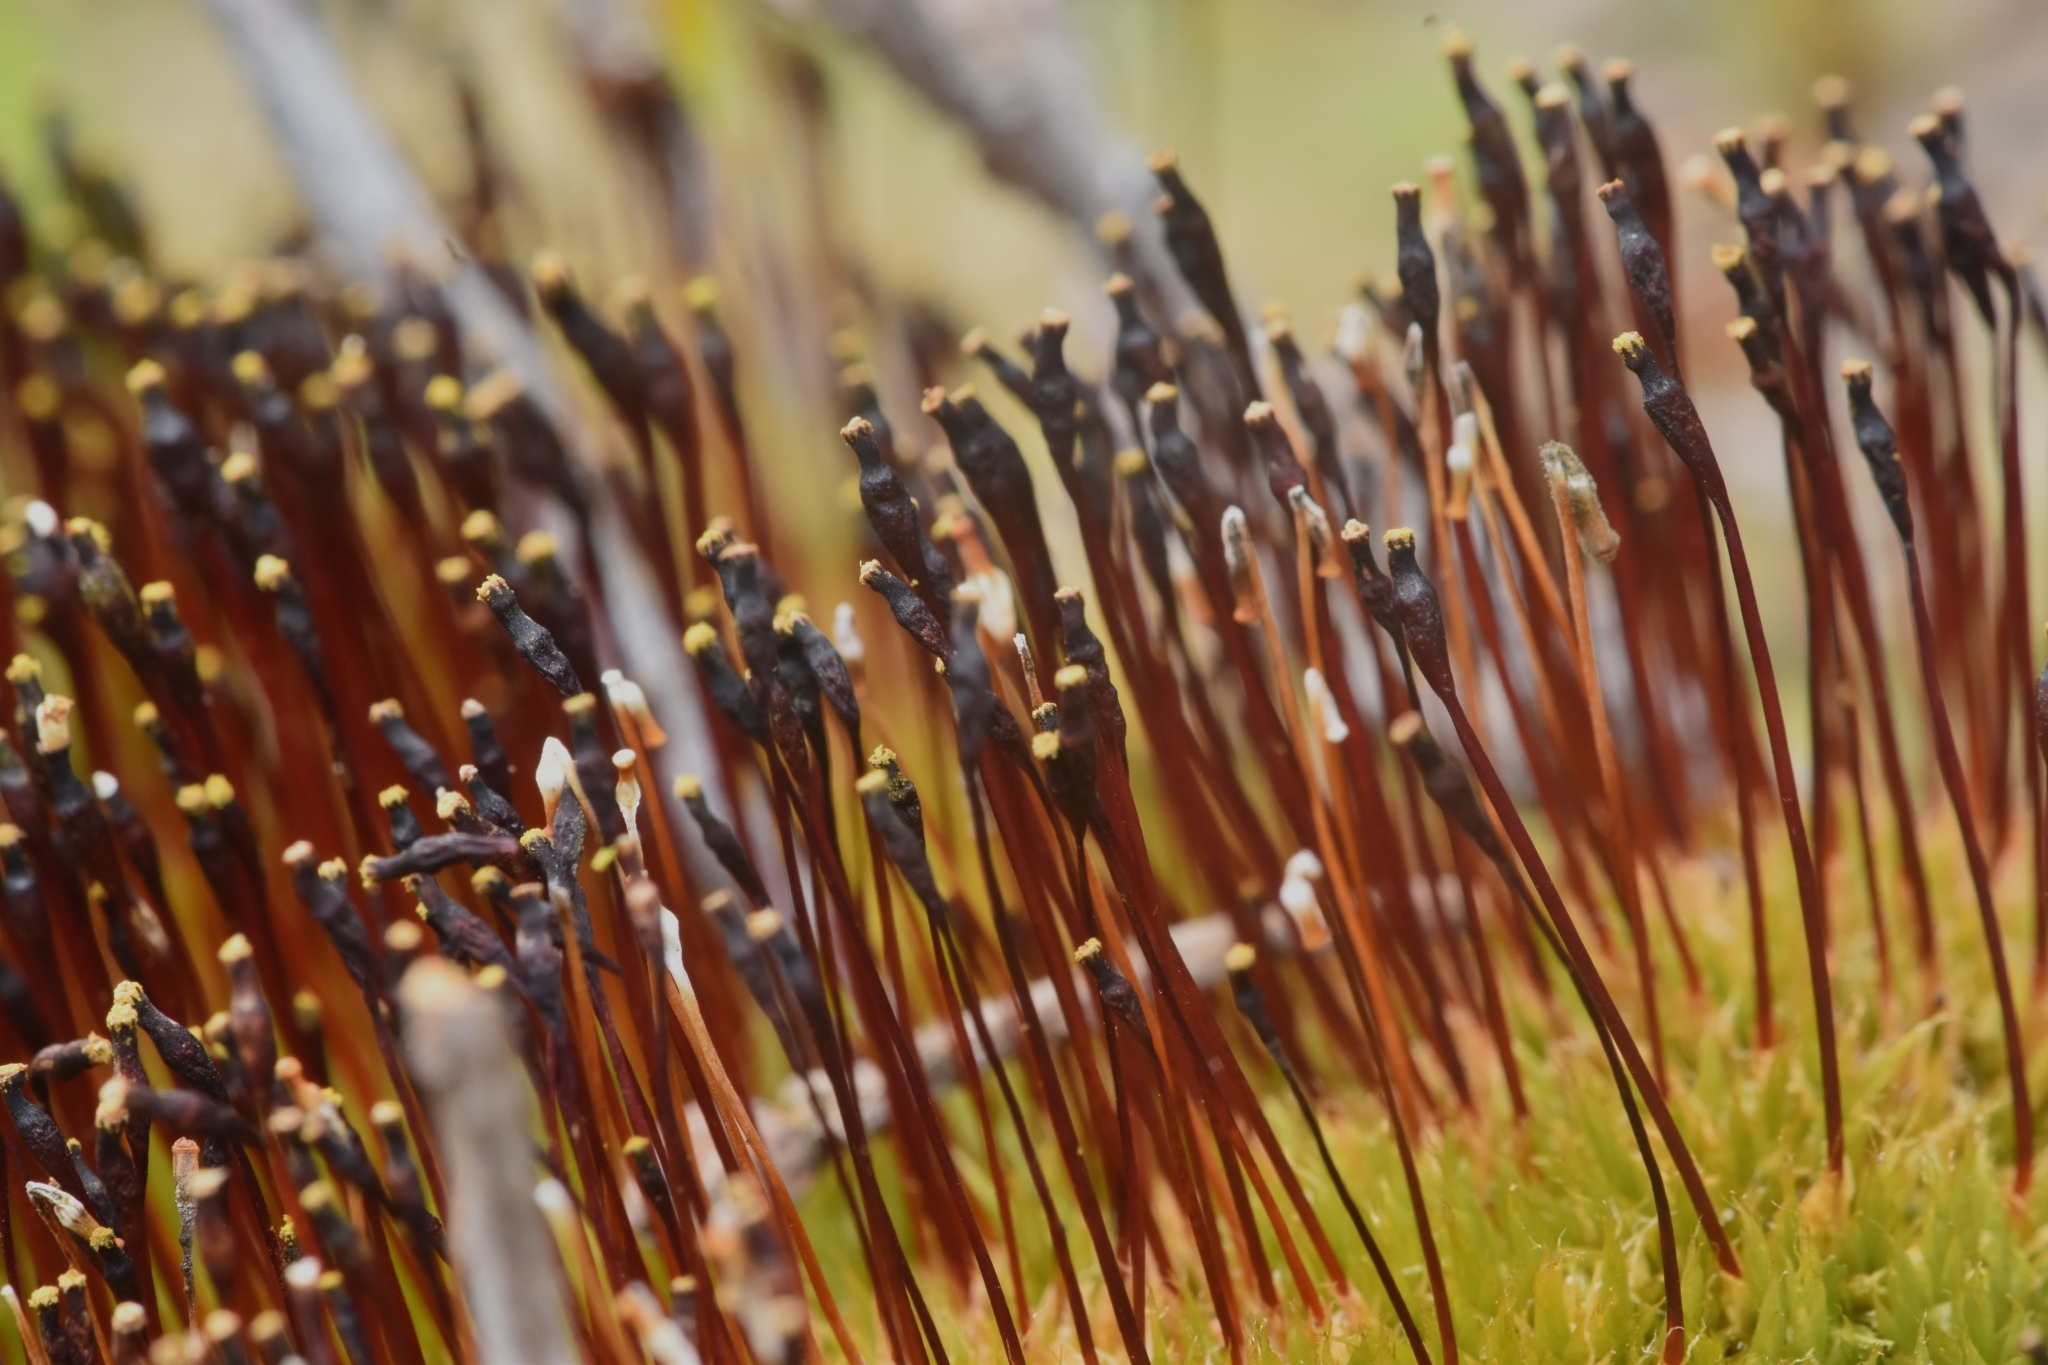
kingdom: Plantae
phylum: Bryophyta
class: Bryopsida
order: Splachnales
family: Splachnaceae
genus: Tetraplodon
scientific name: Tetraplodon mnioides
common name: Entire-leaved nitrogen moss
